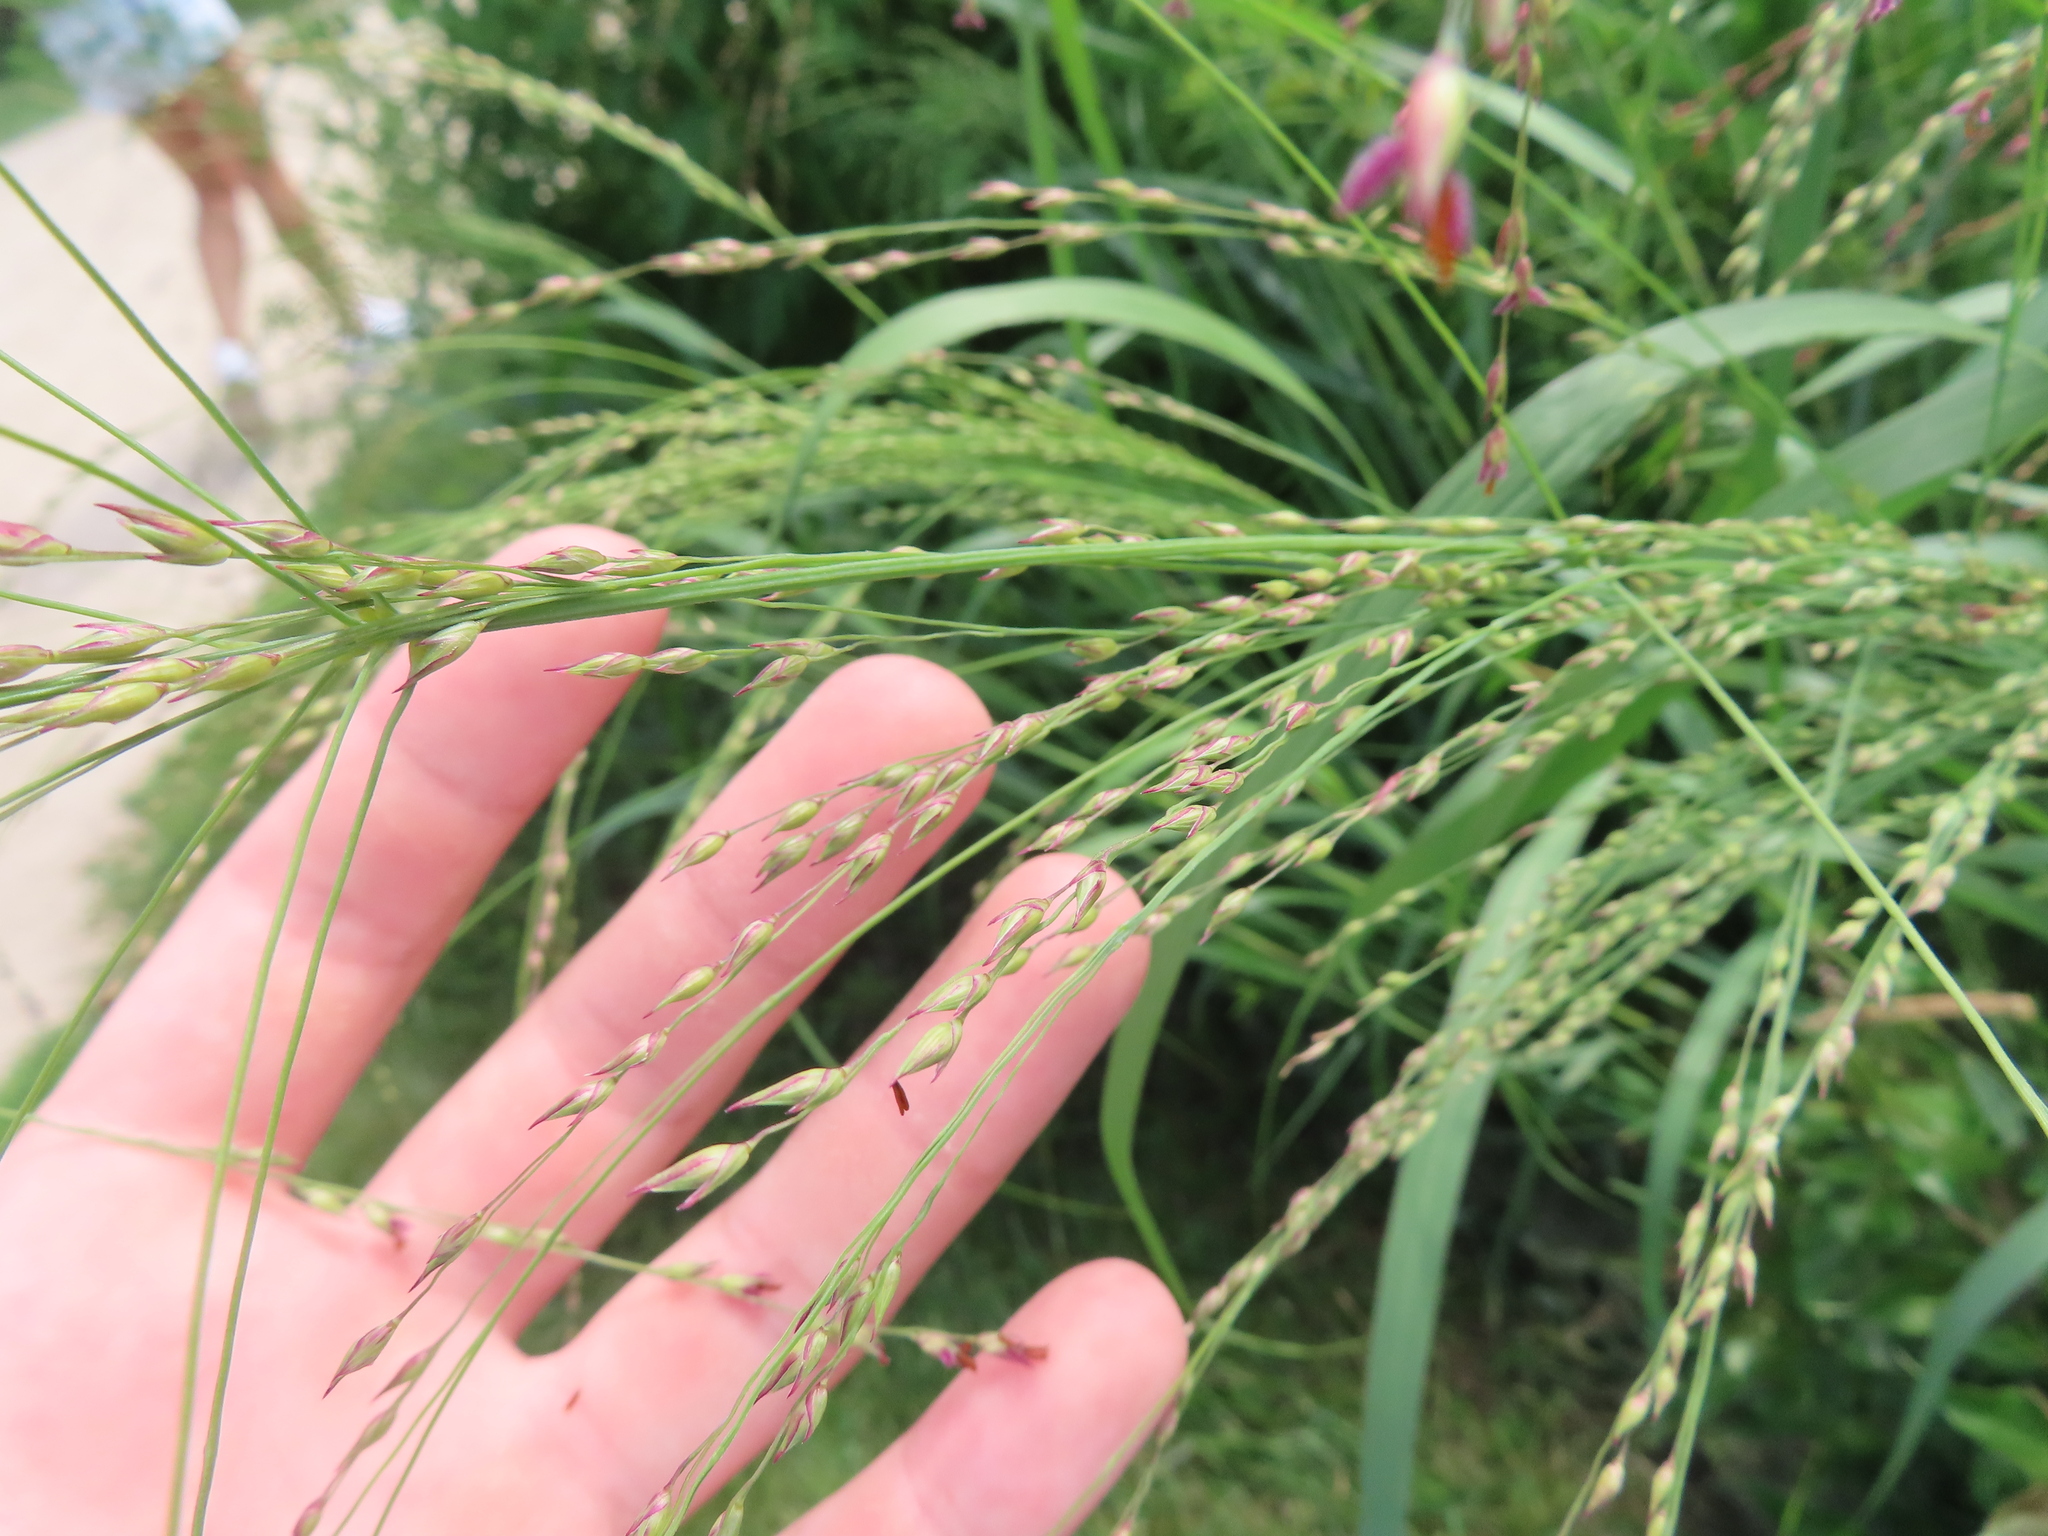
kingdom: Plantae
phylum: Tracheophyta
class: Liliopsida
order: Poales
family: Poaceae
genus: Panicum
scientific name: Panicum virgatum
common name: Switchgrass
